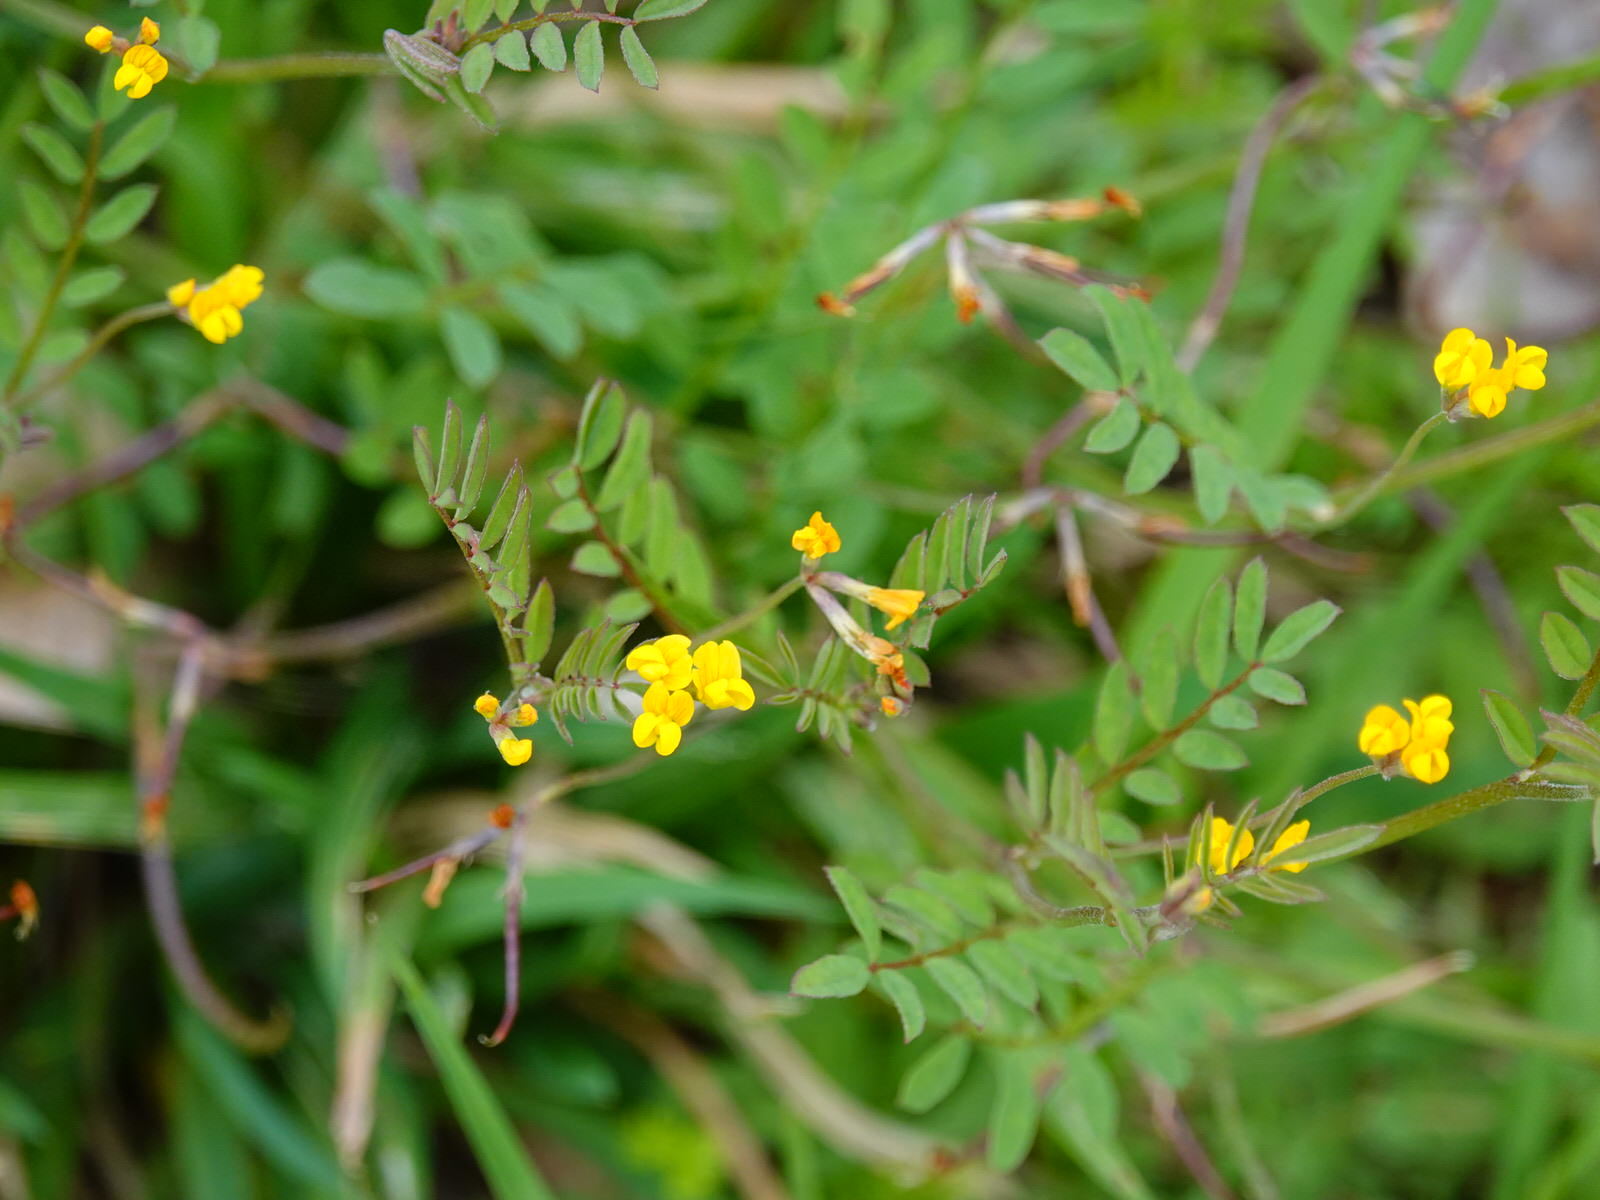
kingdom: Plantae
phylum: Tracheophyta
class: Magnoliopsida
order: Fabales
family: Fabaceae
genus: Ornithopus
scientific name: Ornithopus pinnatus
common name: Orange bird's-foot
